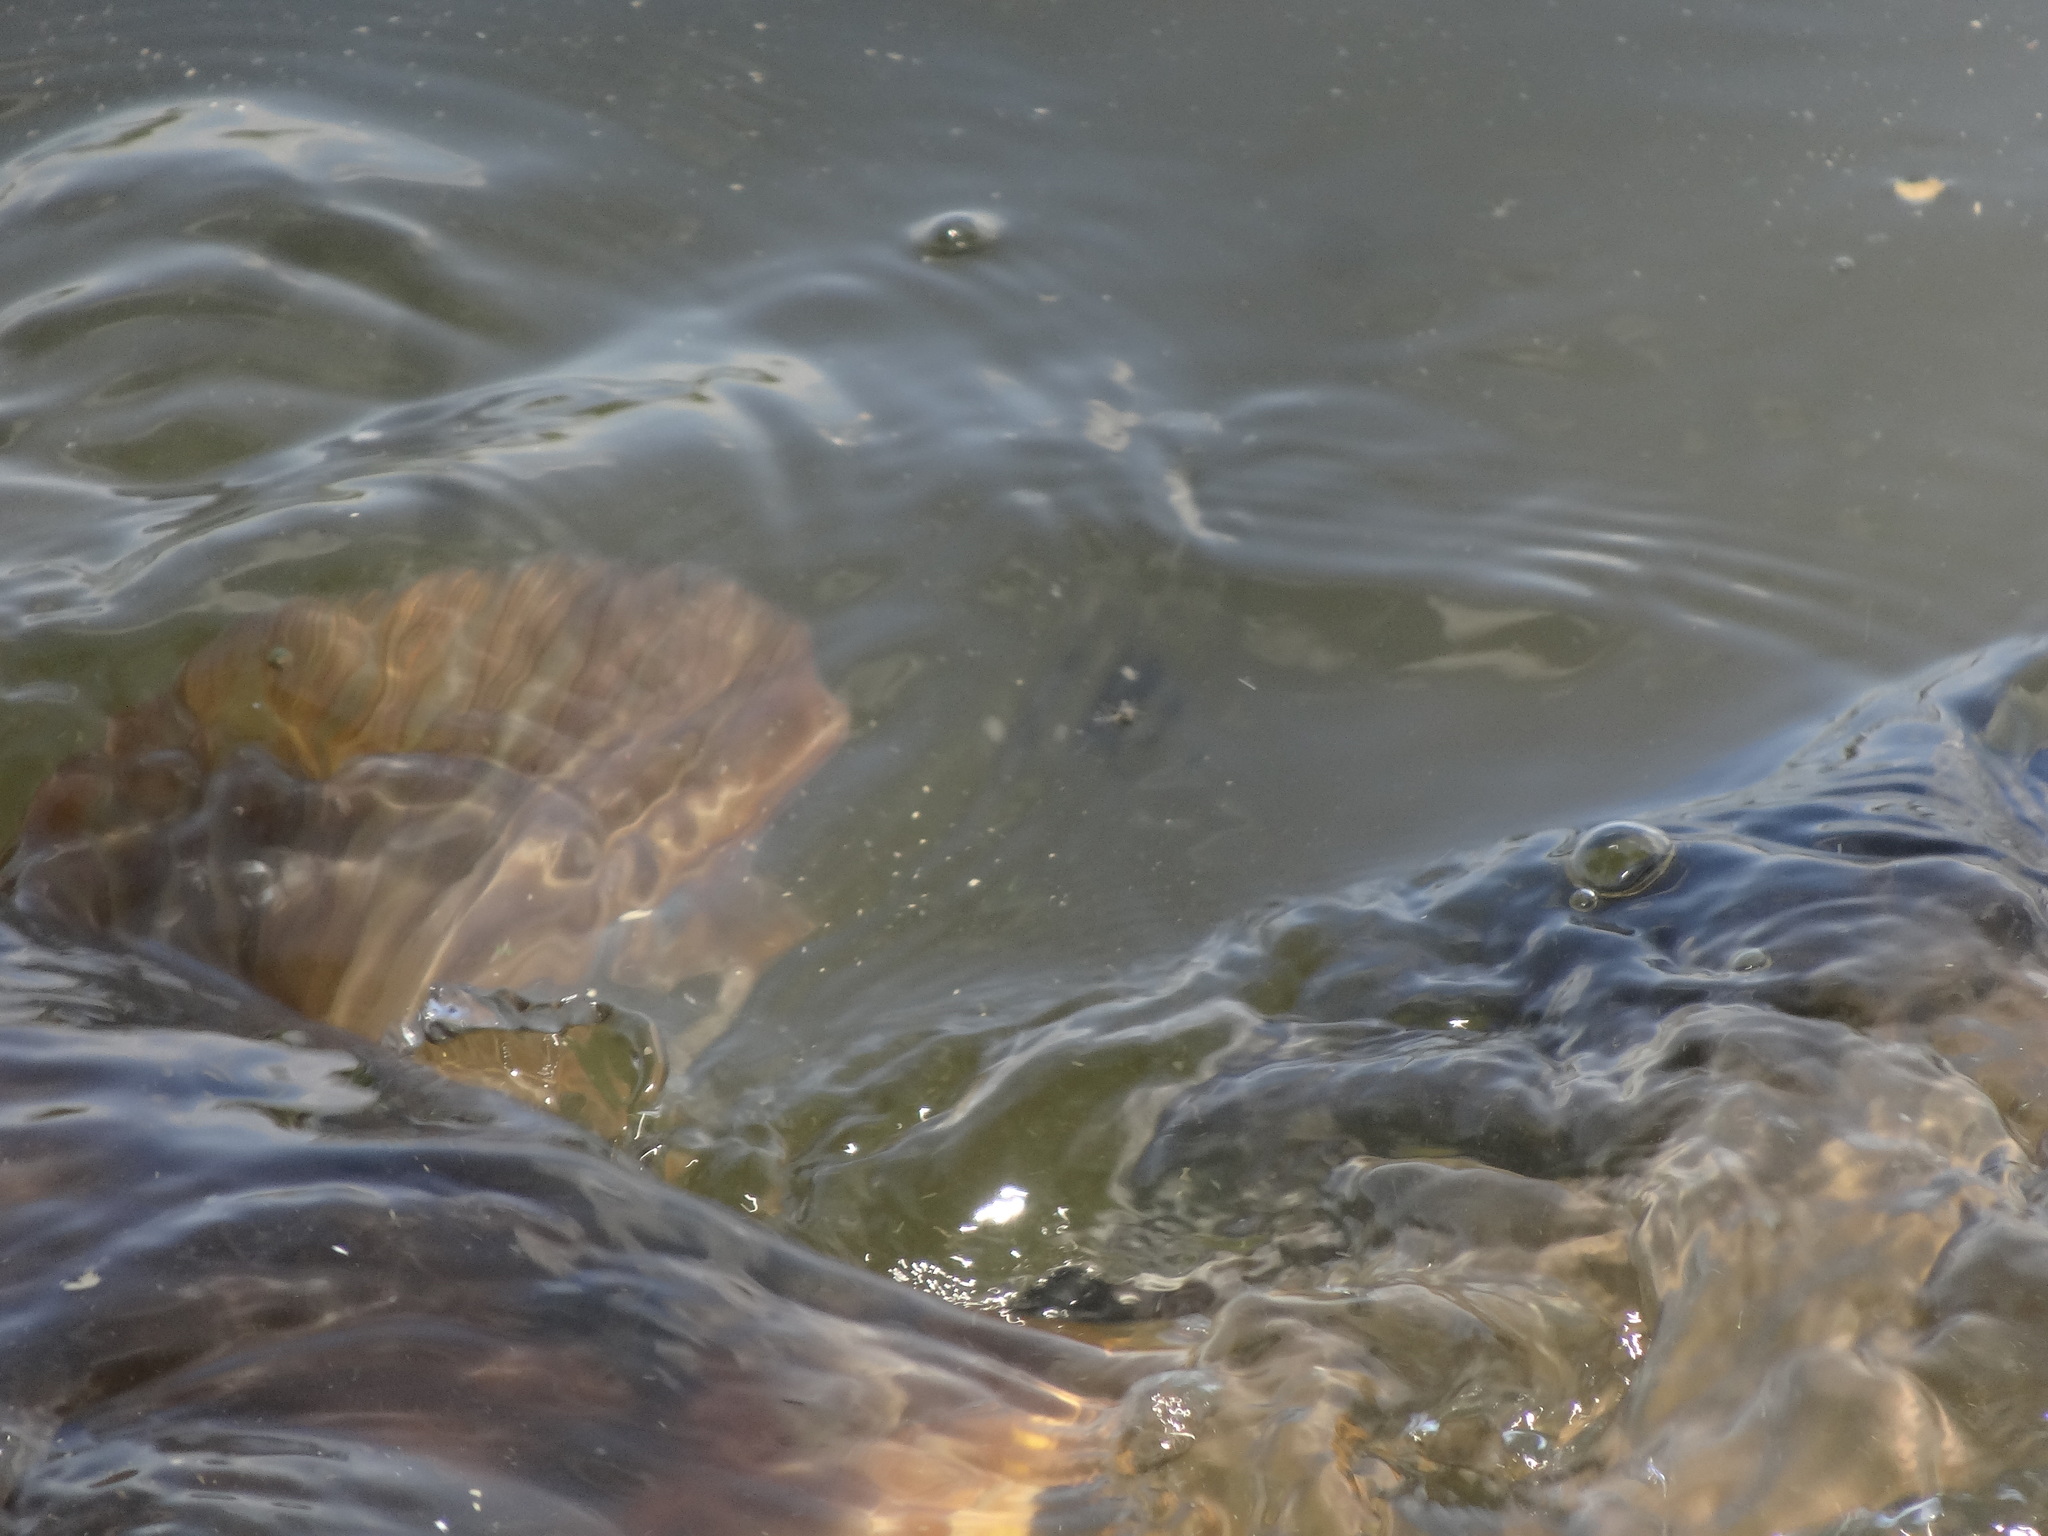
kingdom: Animalia
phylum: Chordata
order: Cypriniformes
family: Cyprinidae
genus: Cyprinus
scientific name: Cyprinus carpio
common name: Common carp
